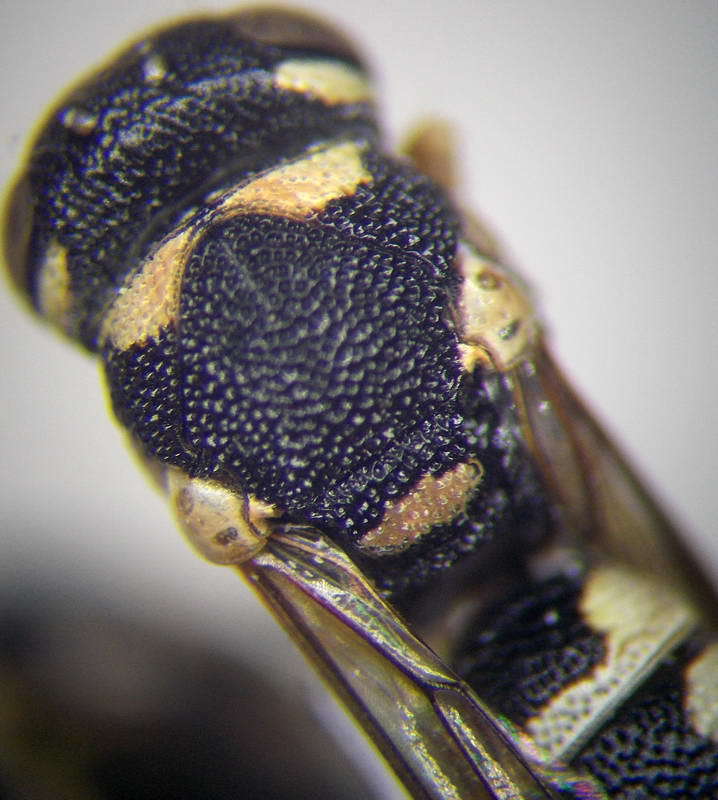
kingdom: Animalia
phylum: Arthropoda
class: Insecta
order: Hymenoptera
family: Eumenidae
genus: Eustenancistrocerus
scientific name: Eustenancistrocerus amadanensis
